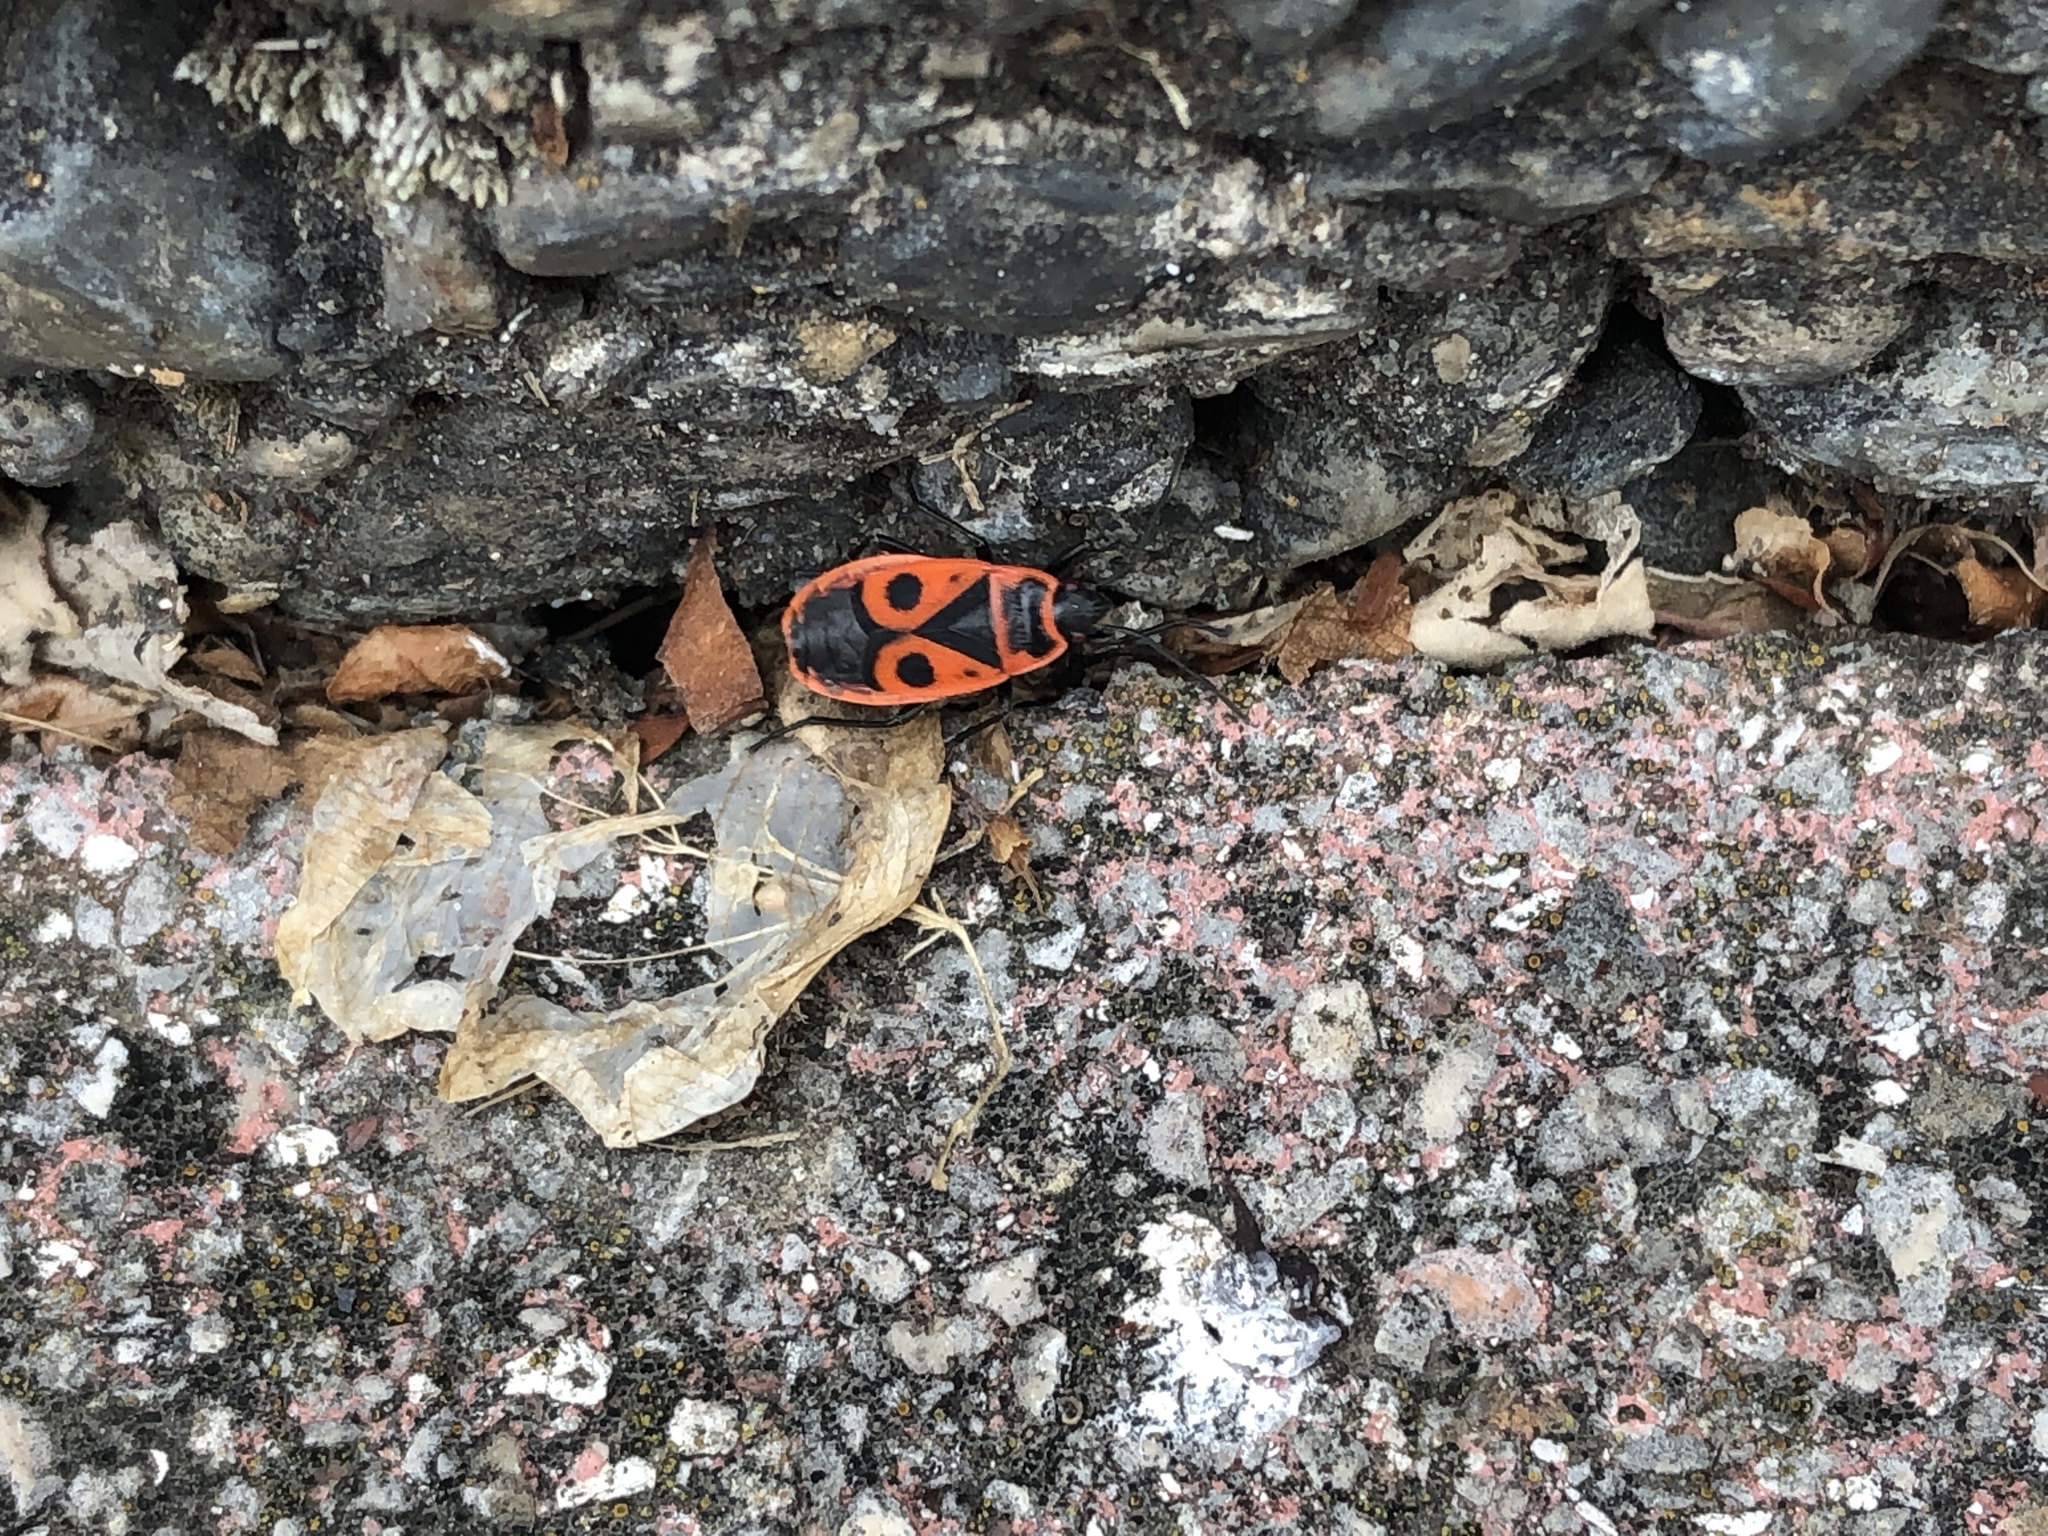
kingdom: Animalia
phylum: Arthropoda
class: Insecta
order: Hemiptera
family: Pyrrhocoridae
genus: Pyrrhocoris
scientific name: Pyrrhocoris apterus
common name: Firebug
